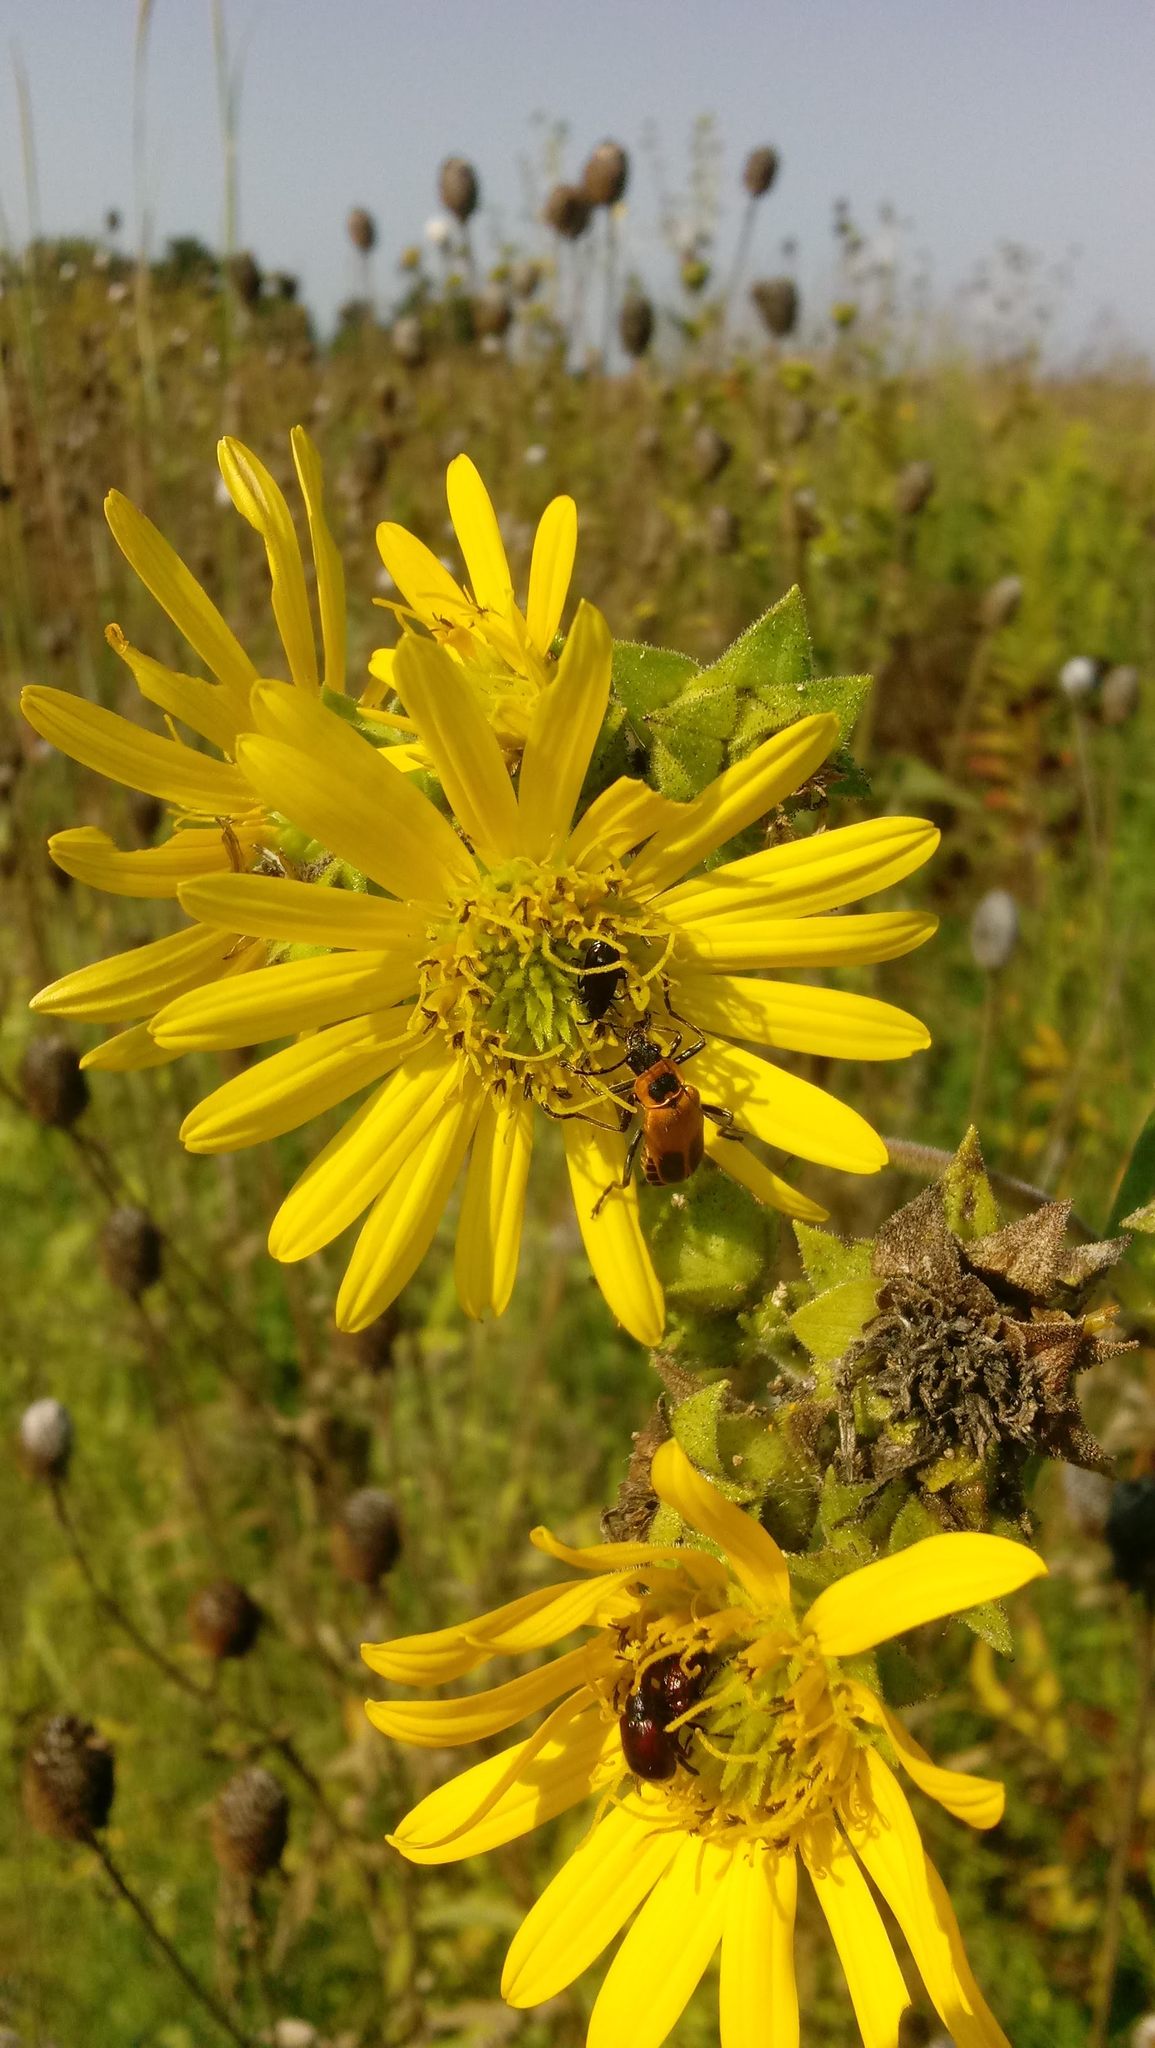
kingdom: Plantae
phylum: Tracheophyta
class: Magnoliopsida
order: Asterales
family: Asteraceae
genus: Silphium
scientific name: Silphium laciniatum
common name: Polarplant
